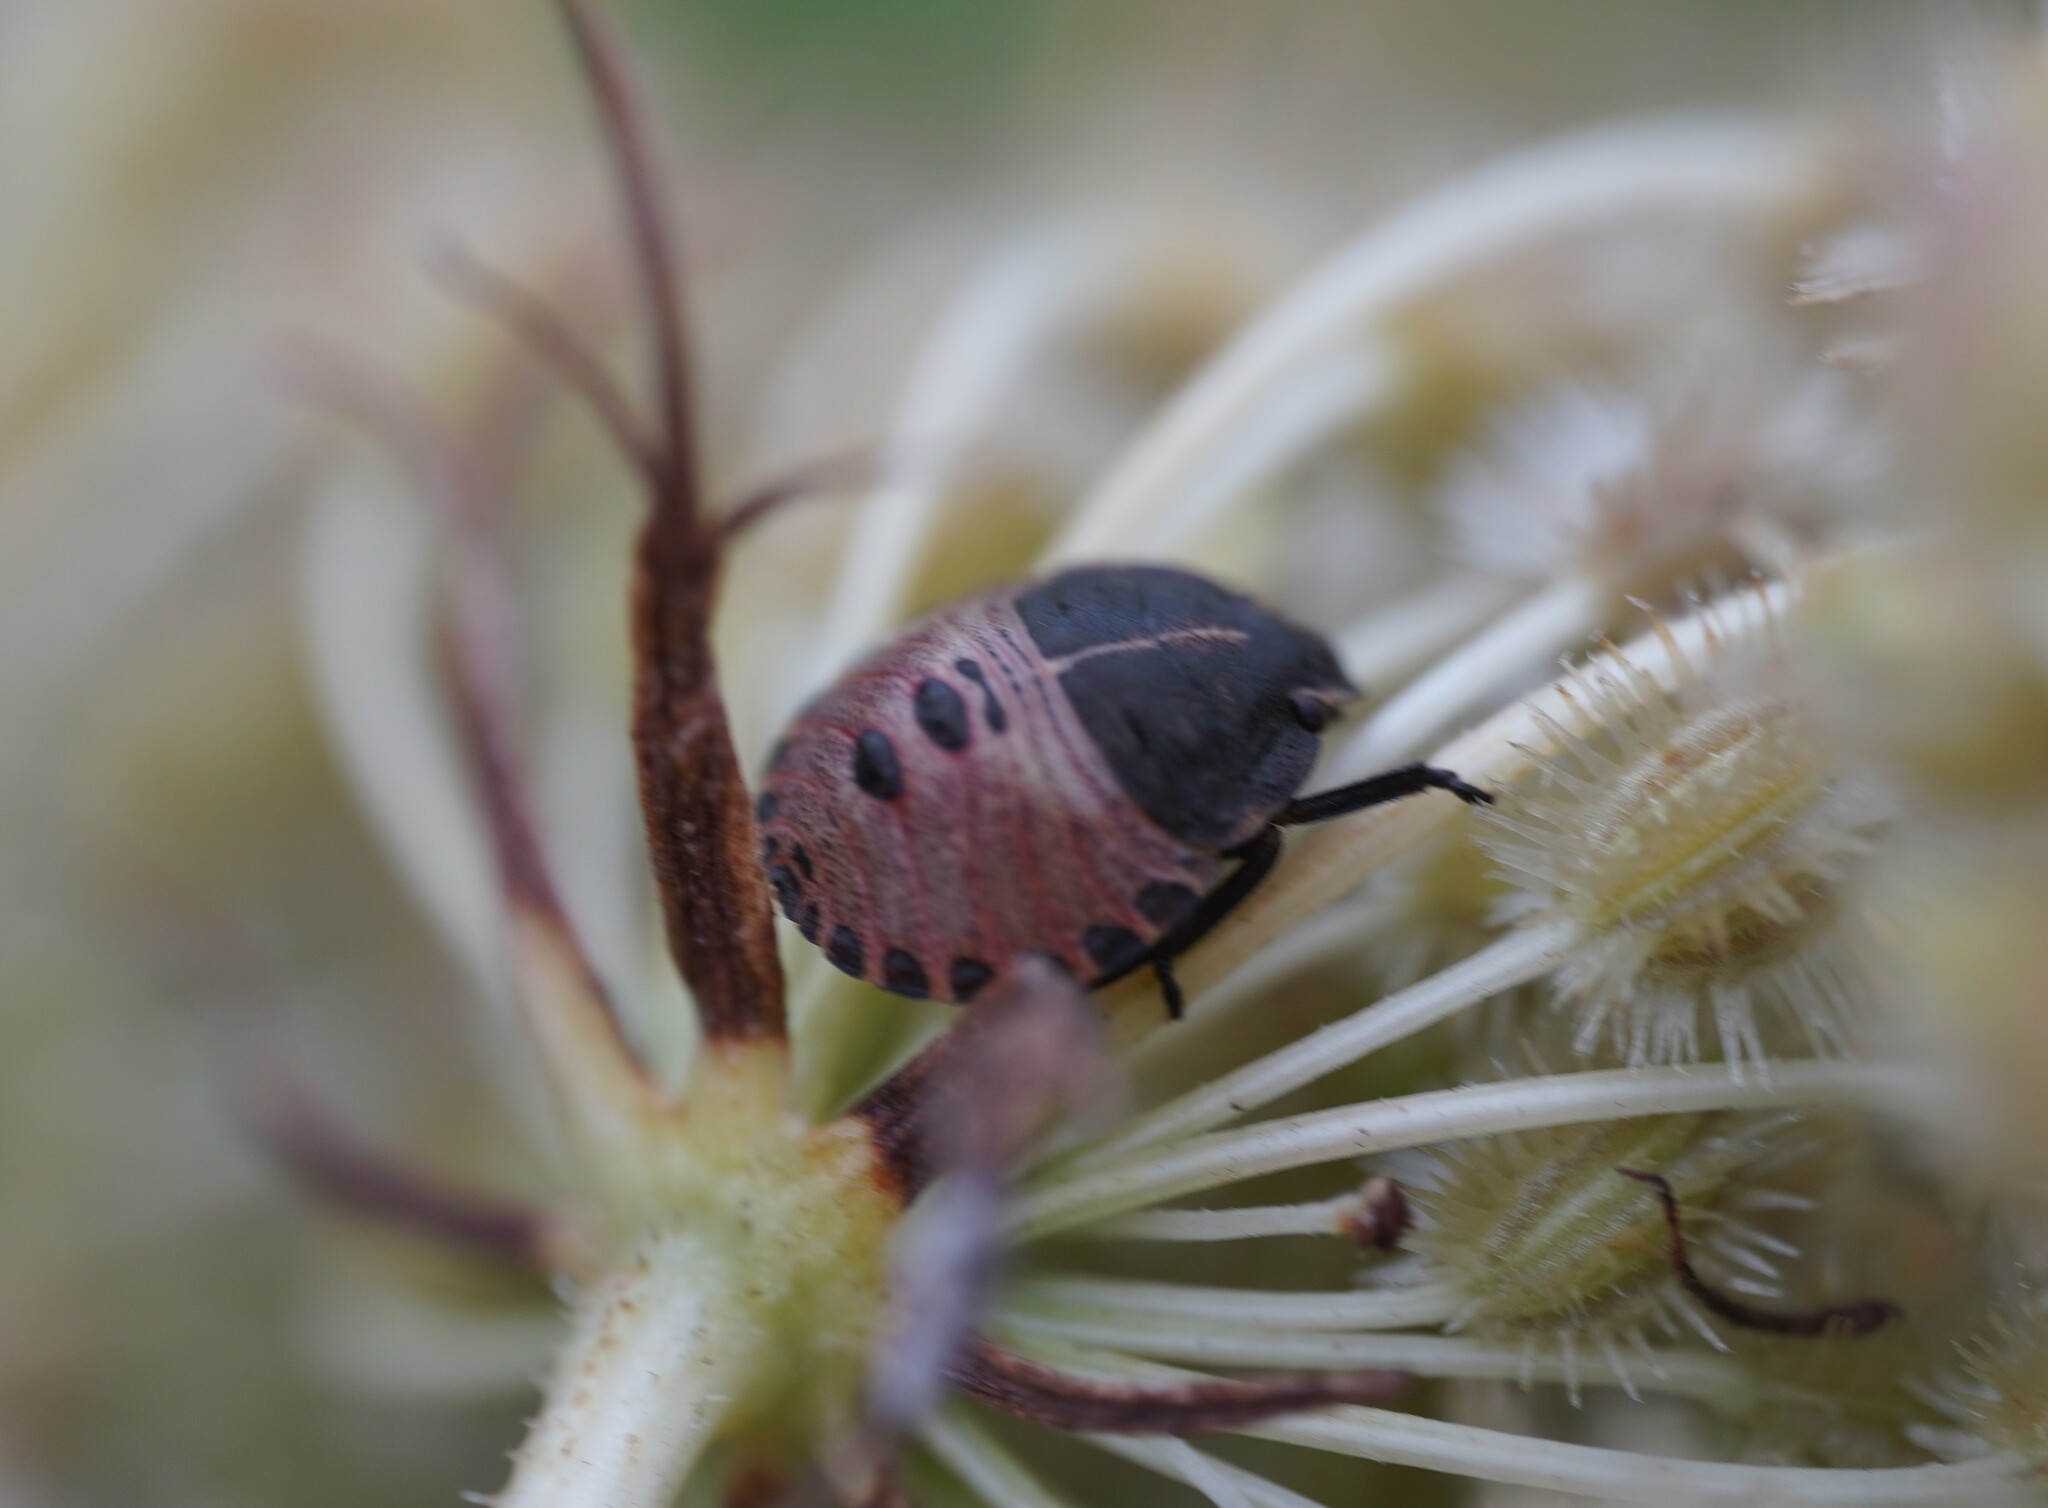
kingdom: Animalia
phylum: Arthropoda
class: Insecta
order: Hemiptera
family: Pentatomidae
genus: Graphosoma
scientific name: Graphosoma italicum
